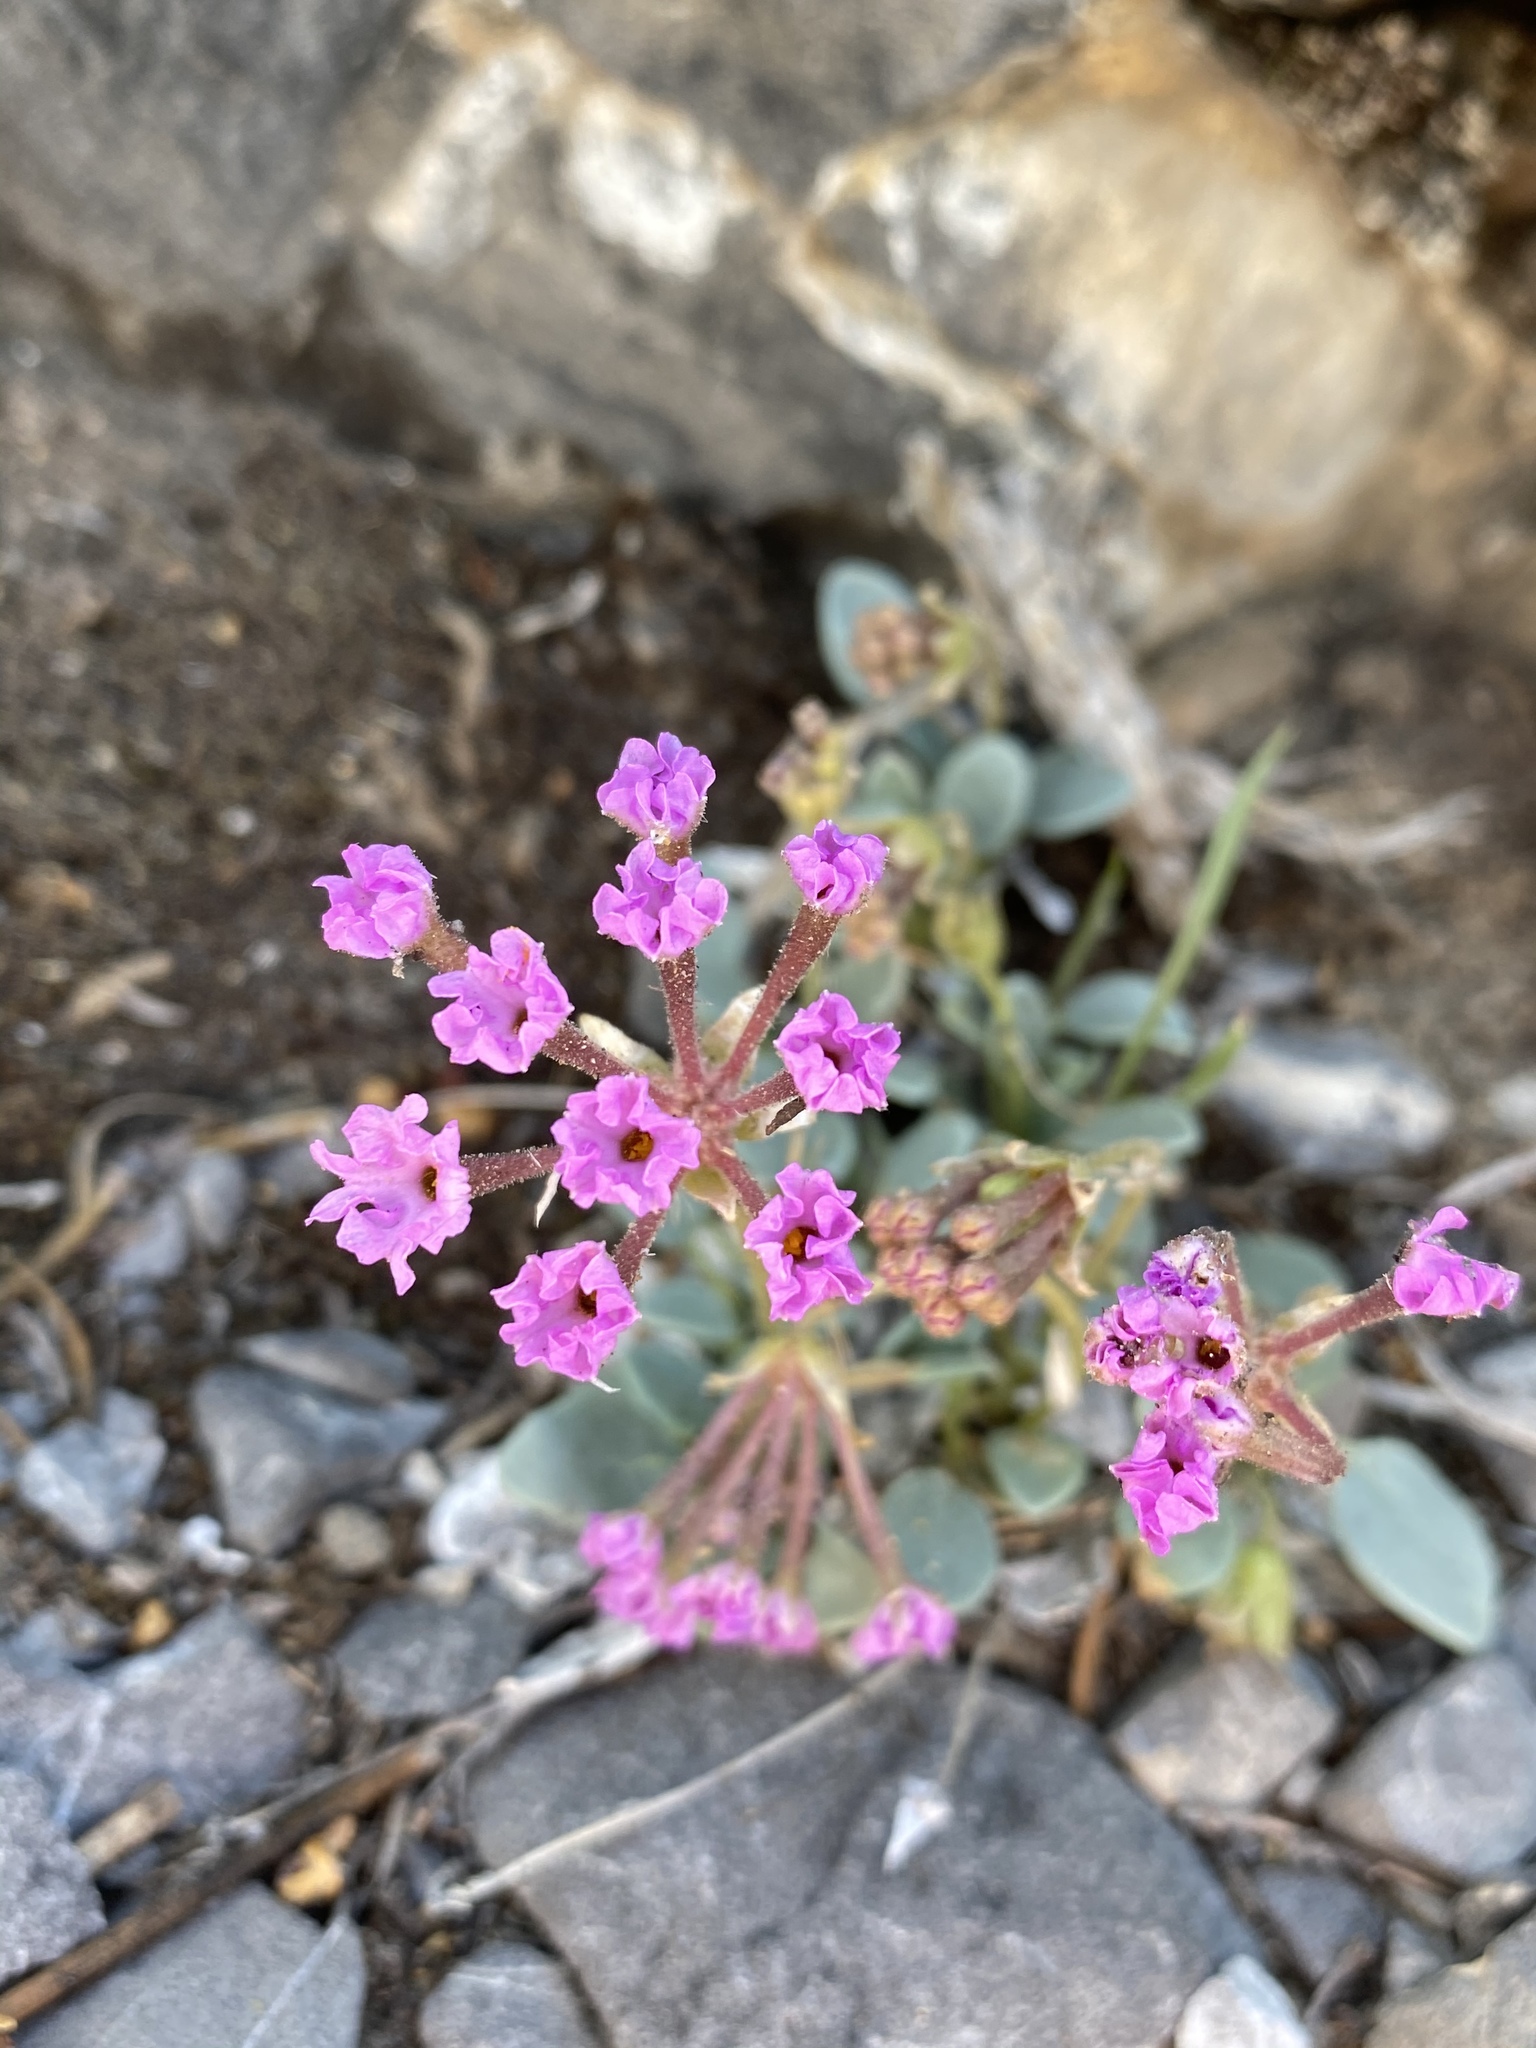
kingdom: Plantae
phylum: Tracheophyta
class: Magnoliopsida
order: Caryophyllales
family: Nyctaginaceae
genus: Abronia
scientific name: Abronia nana
